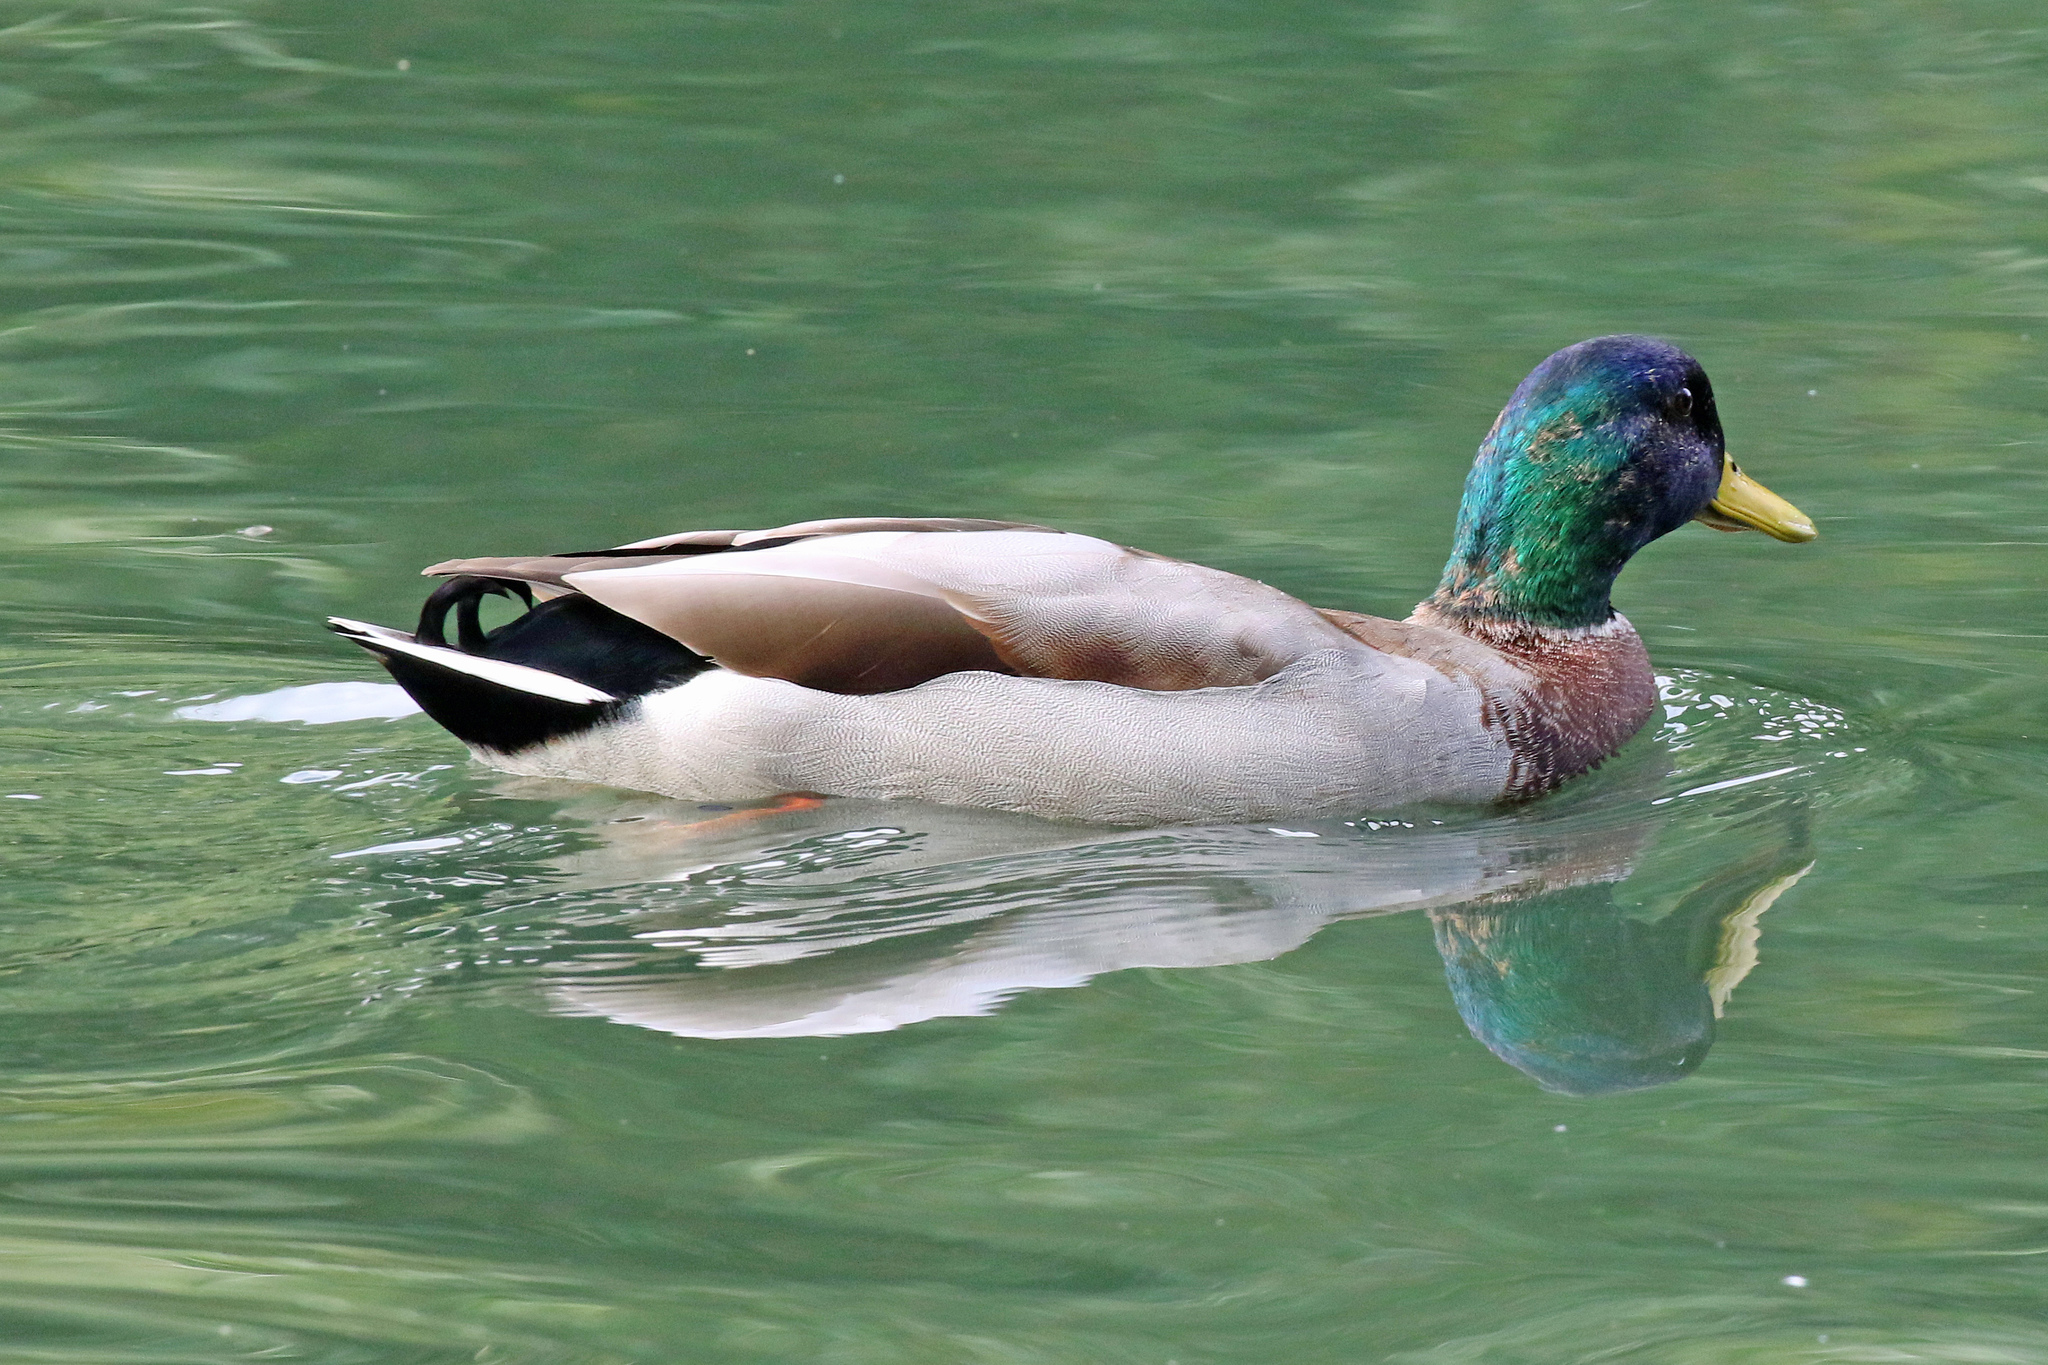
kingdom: Animalia
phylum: Chordata
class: Aves
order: Anseriformes
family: Anatidae
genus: Anas
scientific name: Anas platyrhynchos
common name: Mallard
